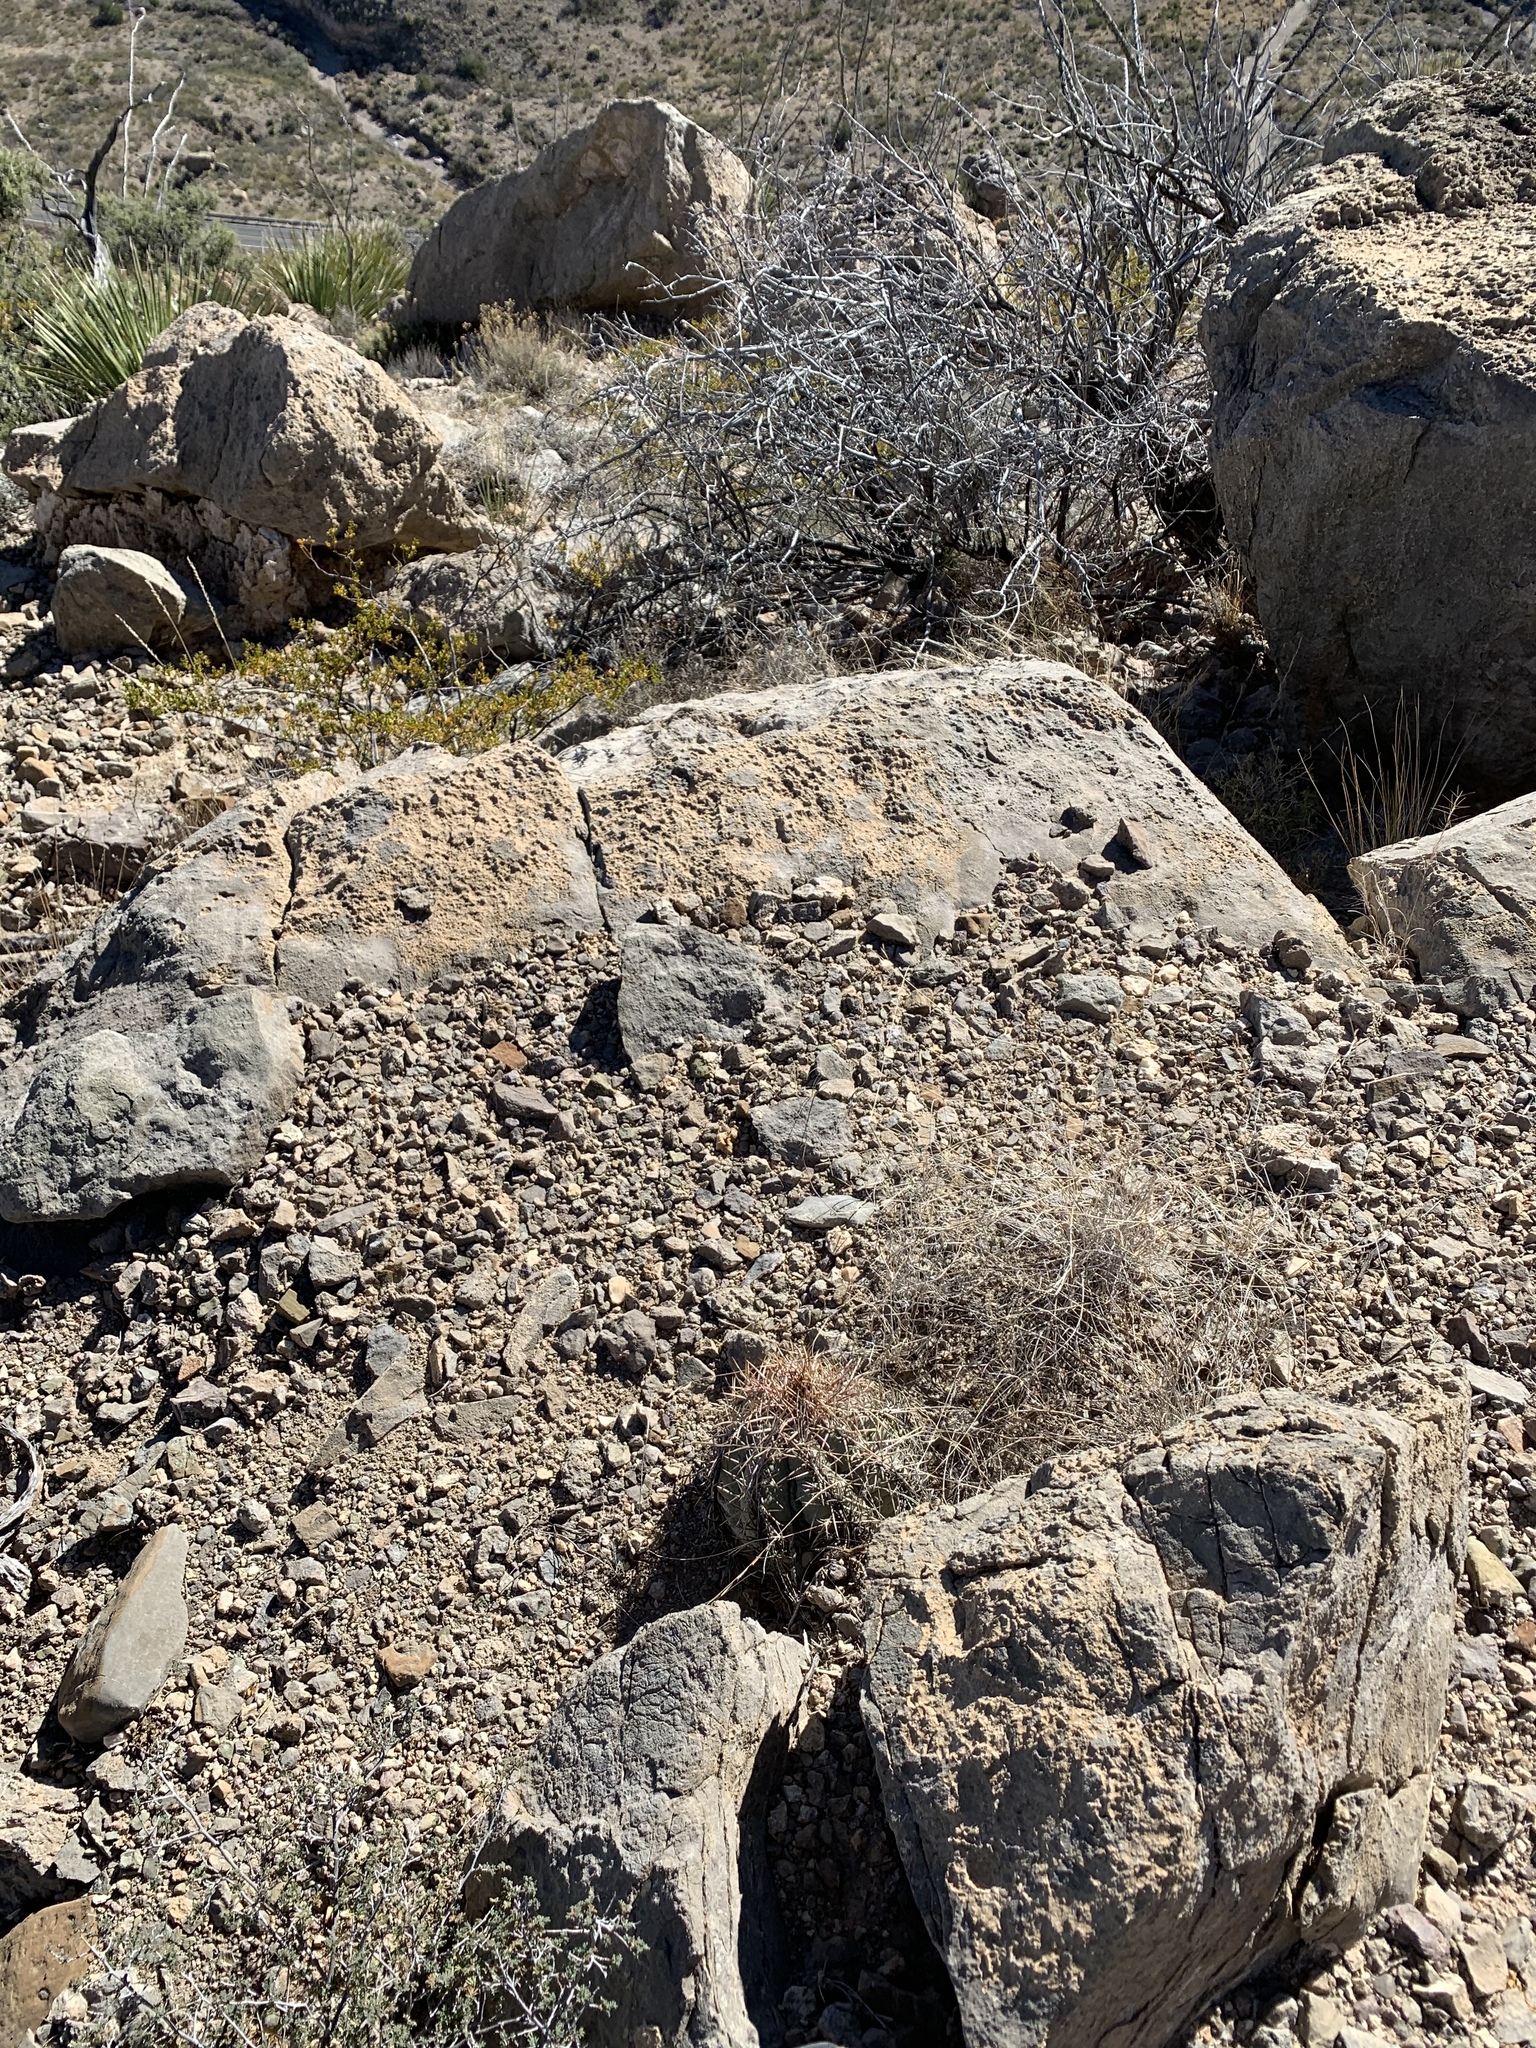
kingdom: Plantae
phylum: Tracheophyta
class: Magnoliopsida
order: Caryophyllales
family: Cactaceae
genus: Echinocactus
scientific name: Echinocactus horizonthalonius
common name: Devilshead
